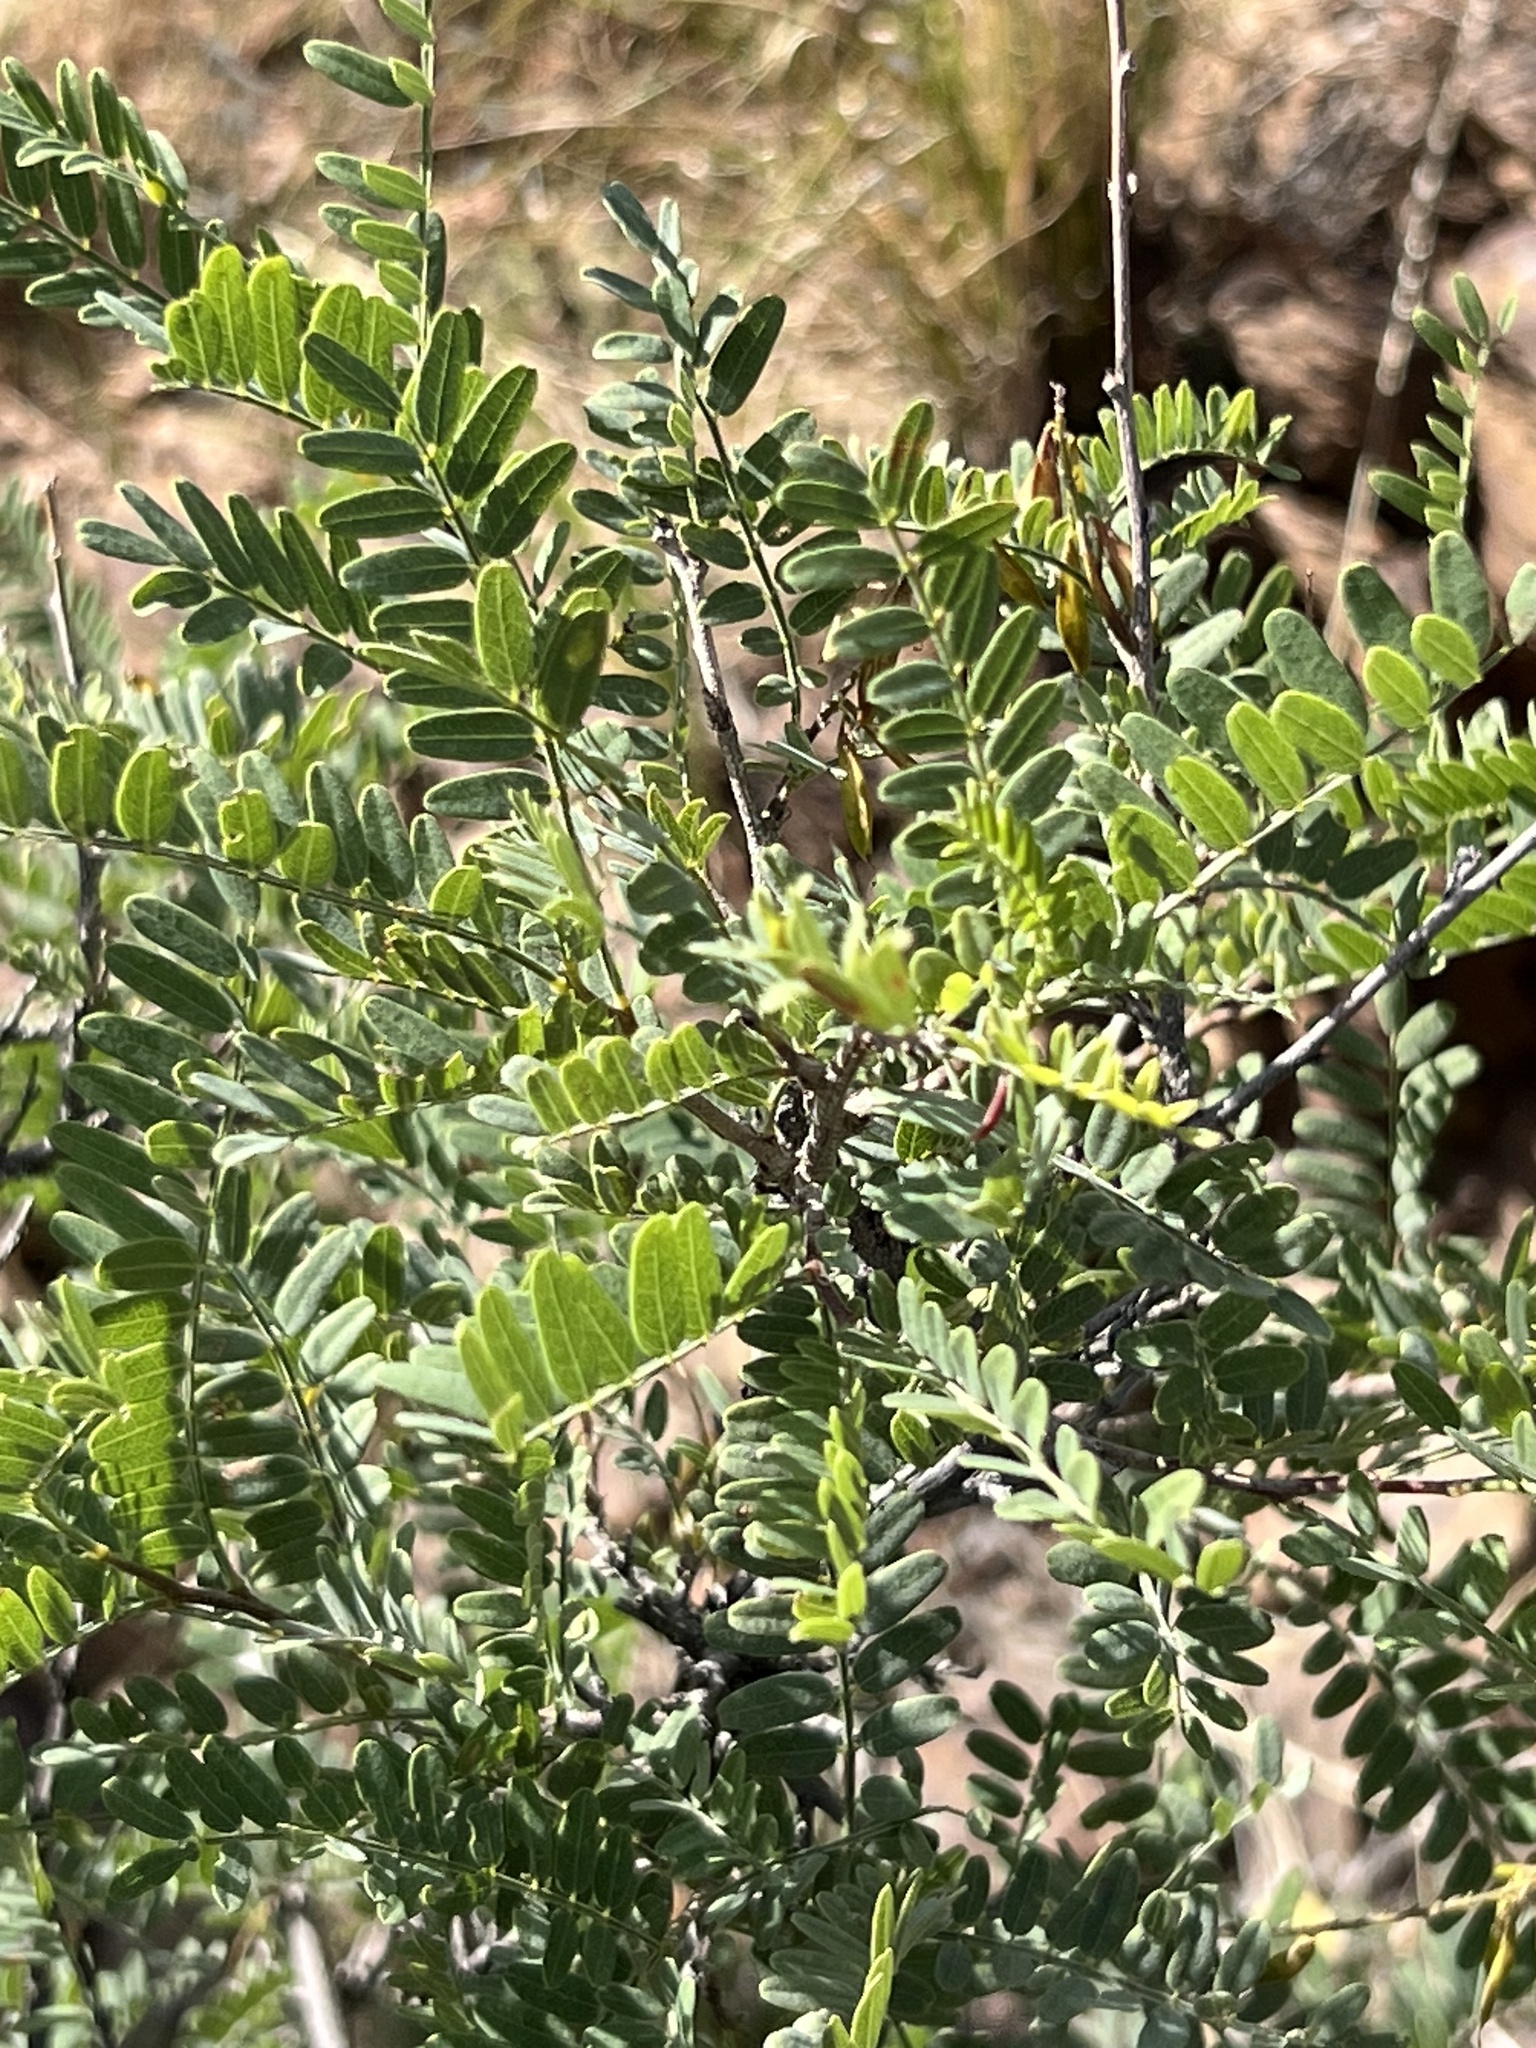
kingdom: Plantae
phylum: Tracheophyta
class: Magnoliopsida
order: Fabales
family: Fabaceae
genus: Eysenhardtia
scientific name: Eysenhardtia orthocarpa
